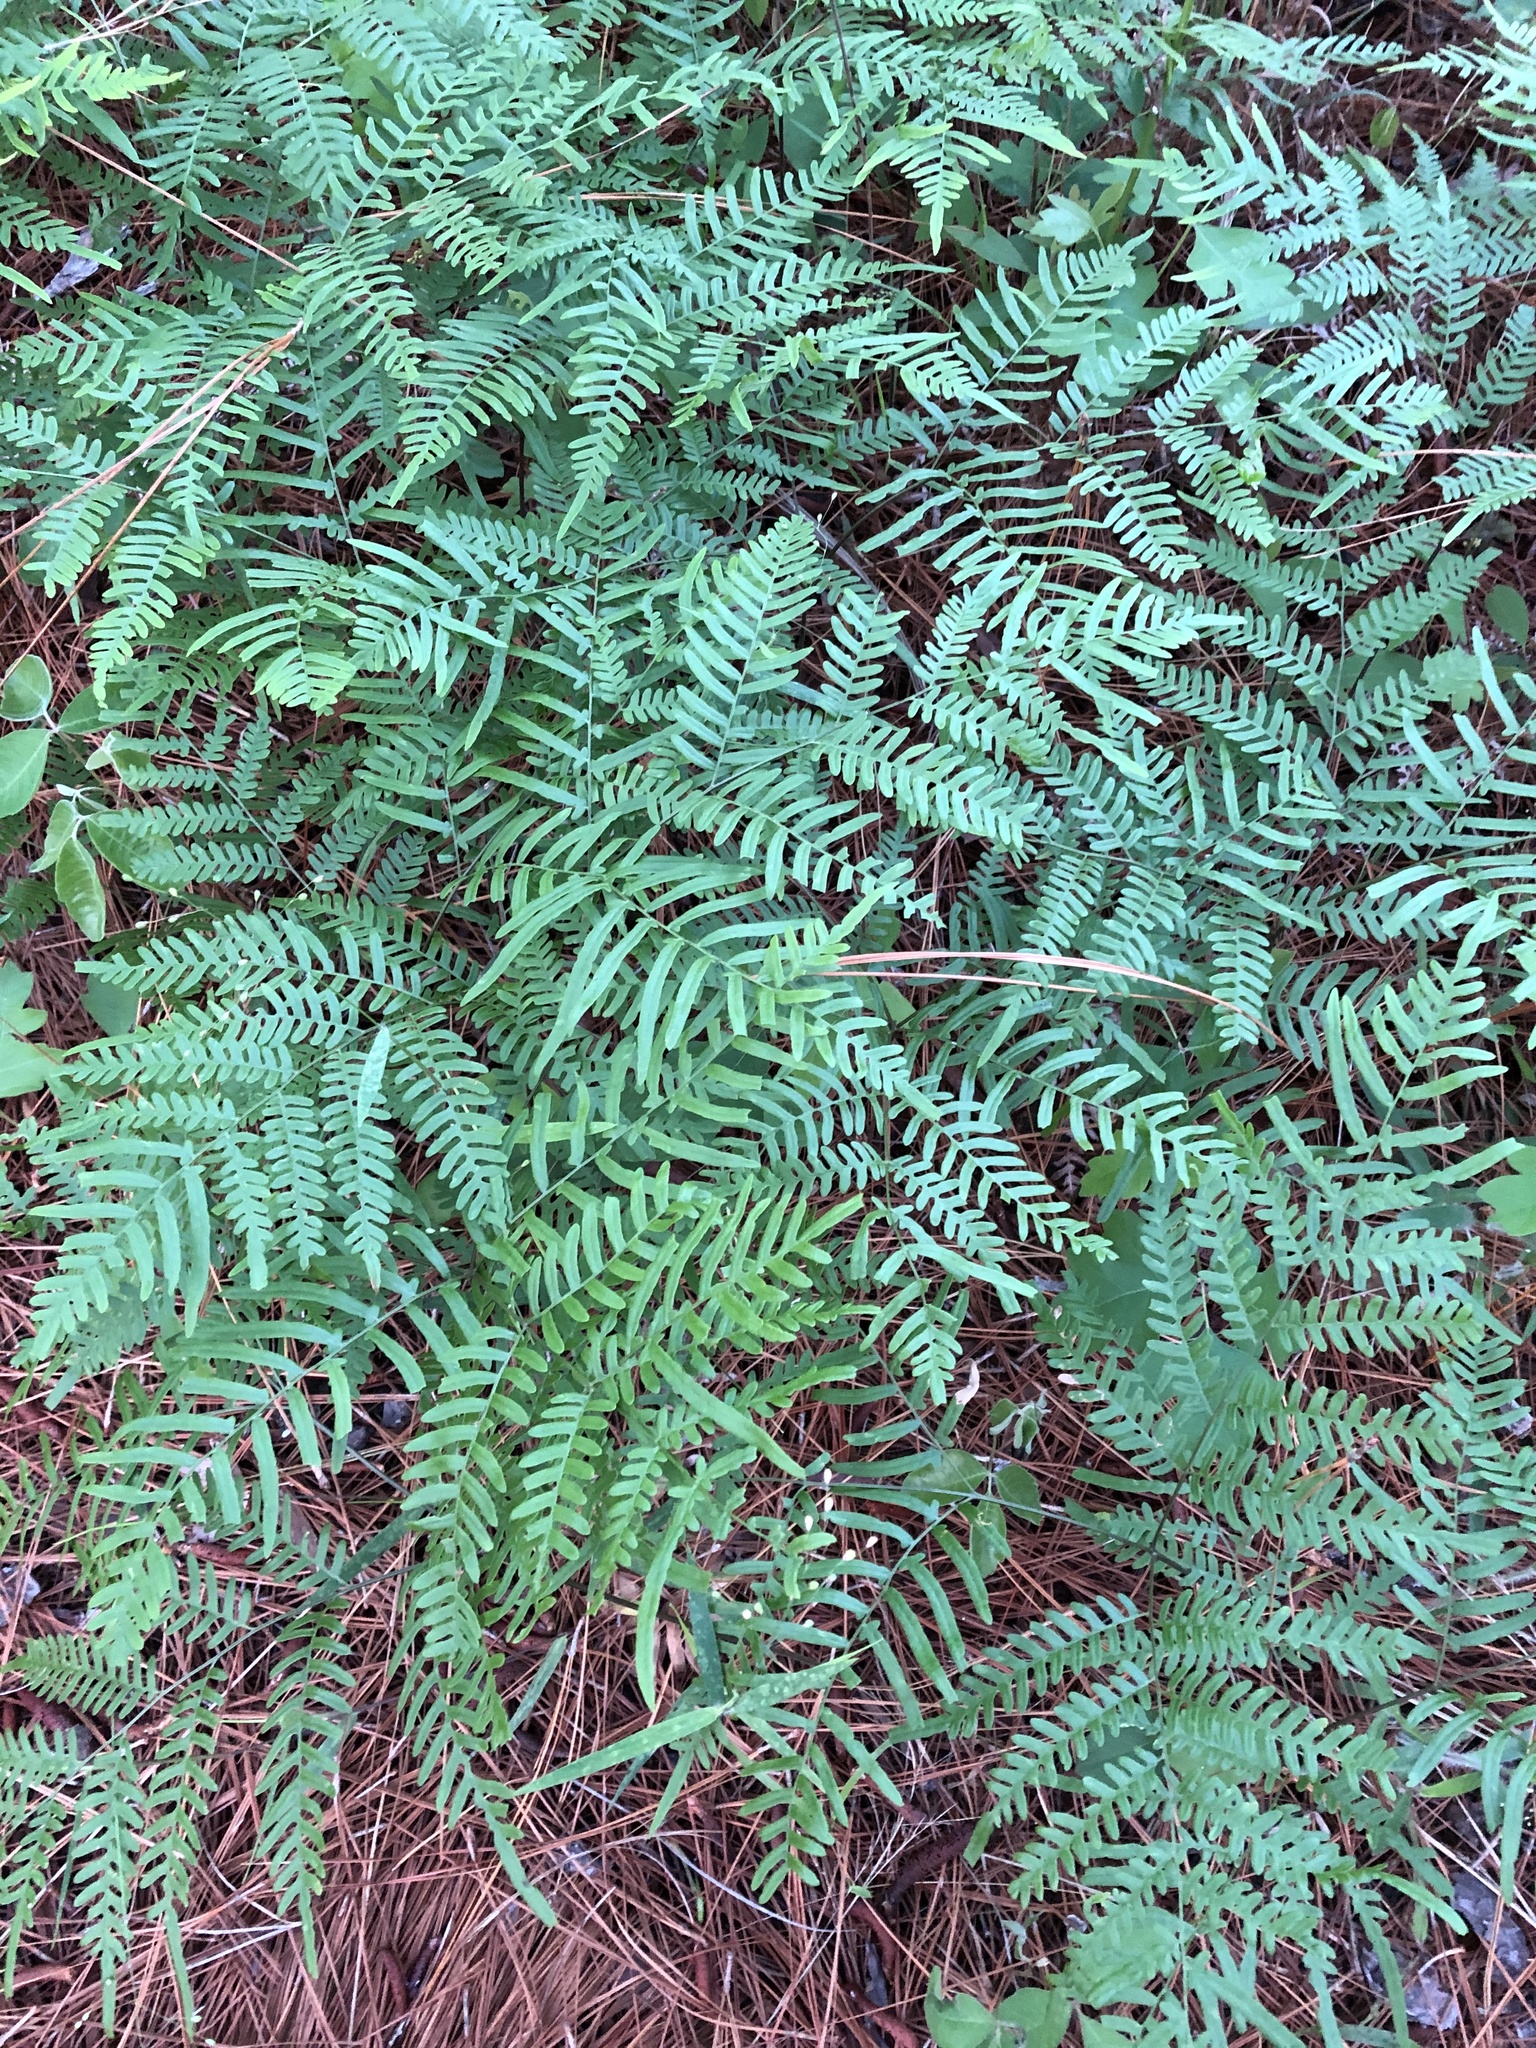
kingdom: Plantae
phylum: Tracheophyta
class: Polypodiopsida
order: Polypodiales
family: Dennstaedtiaceae
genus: Pteridium
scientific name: Pteridium
